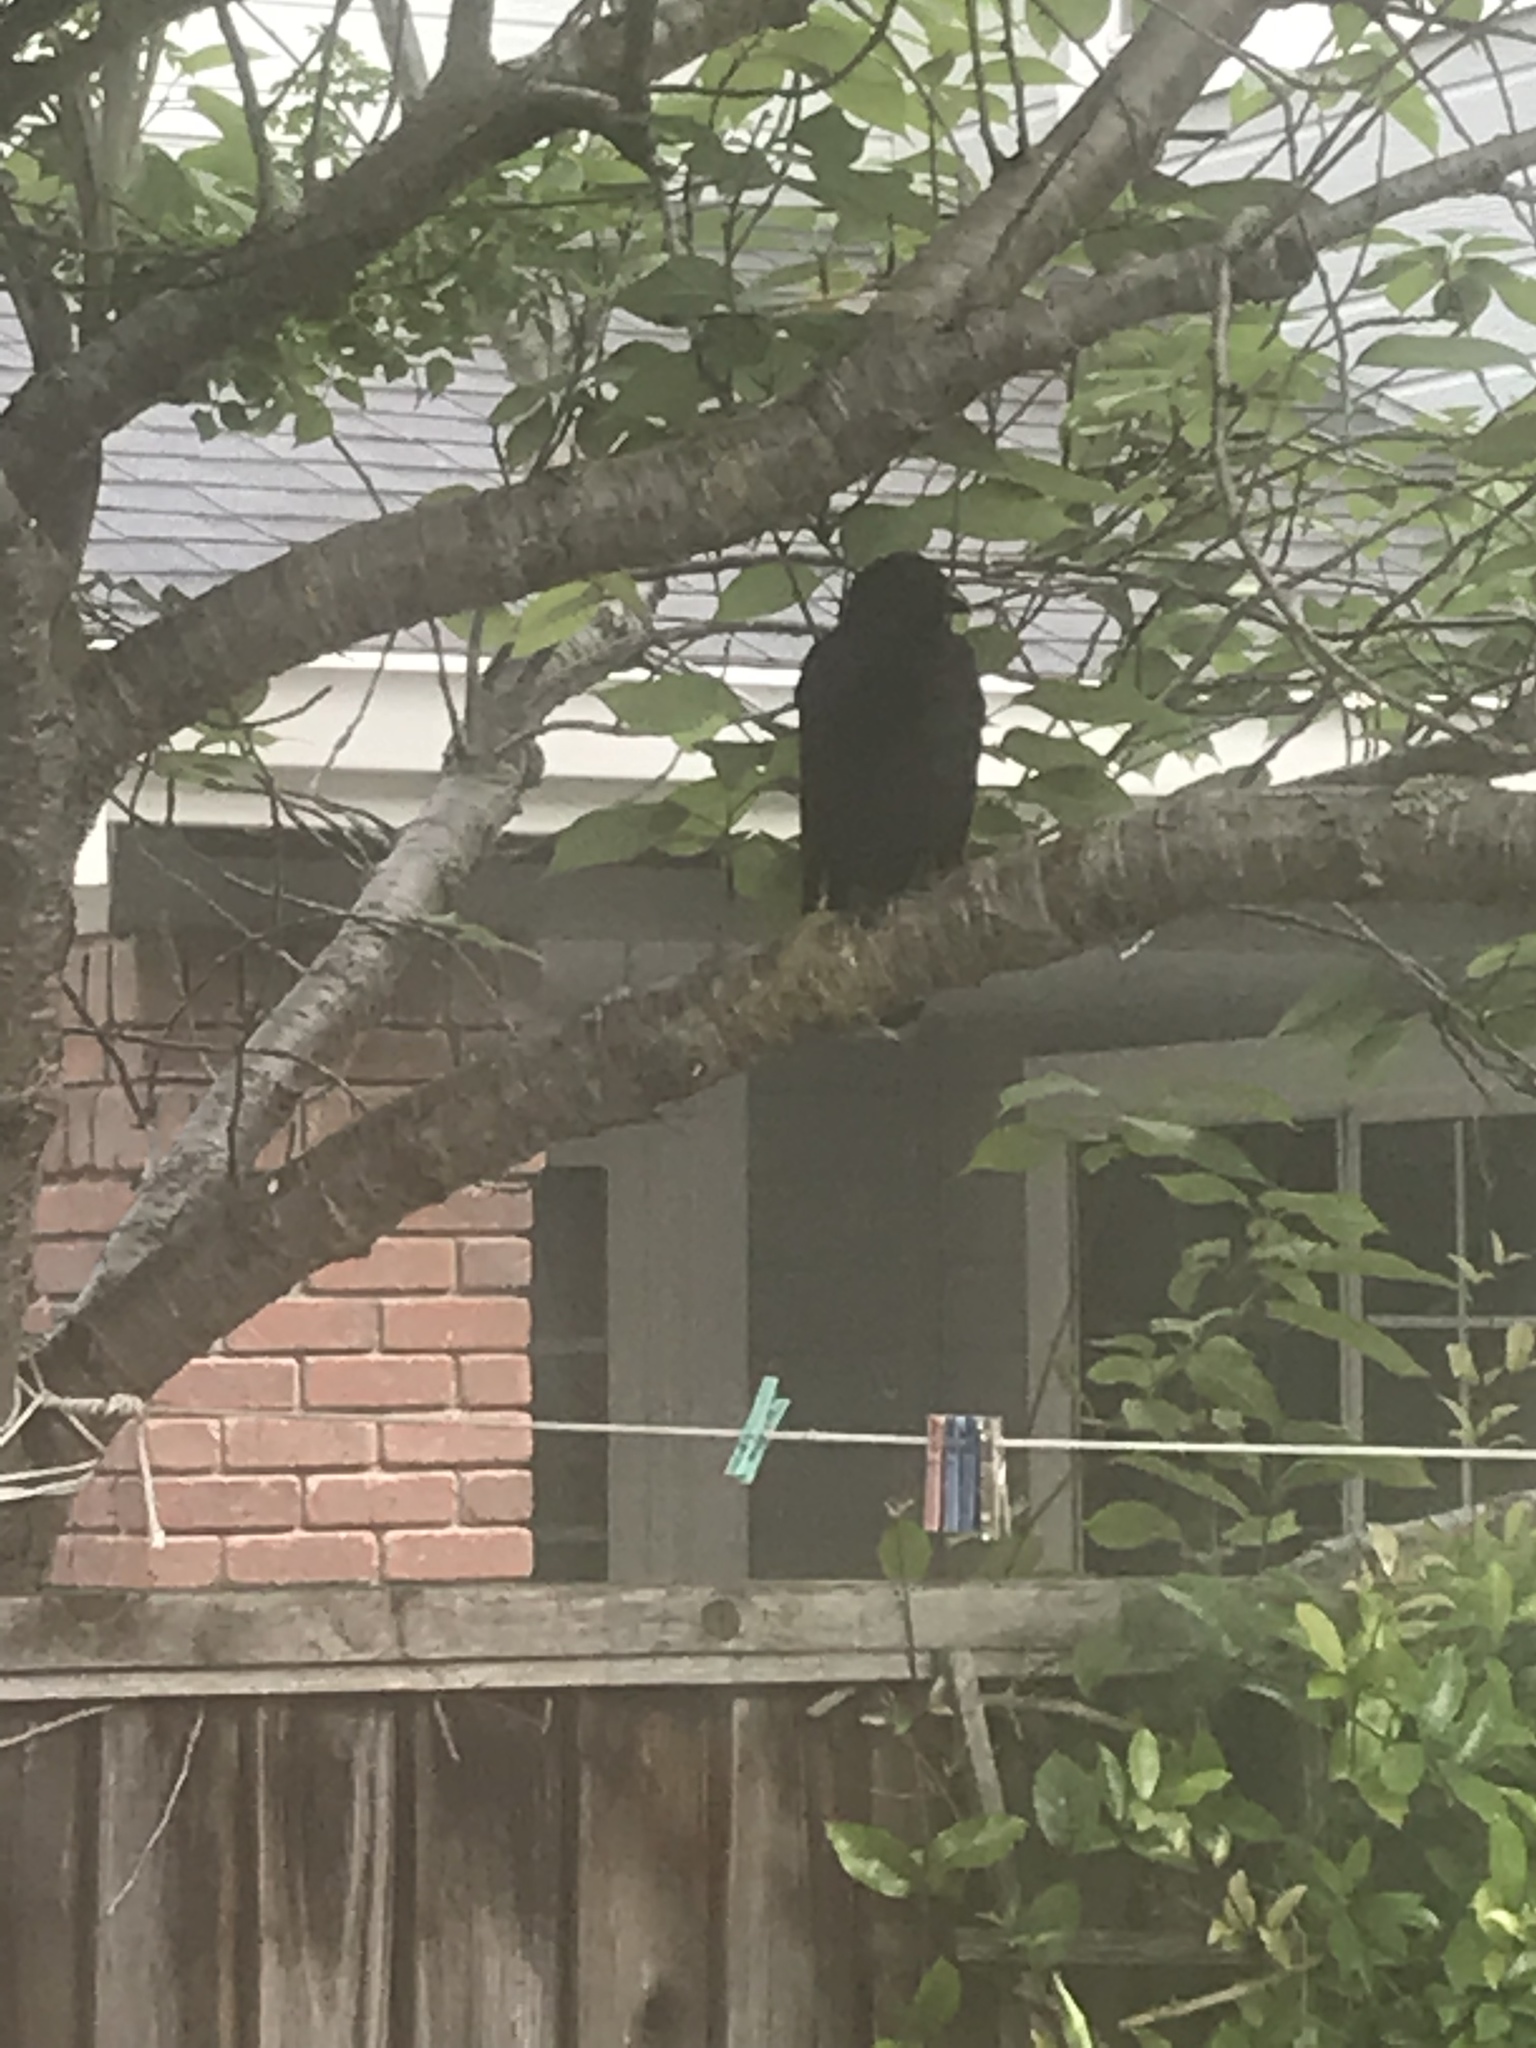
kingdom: Animalia
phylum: Chordata
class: Aves
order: Passeriformes
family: Corvidae
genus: Corvus
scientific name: Corvus brachyrhynchos
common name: American crow
